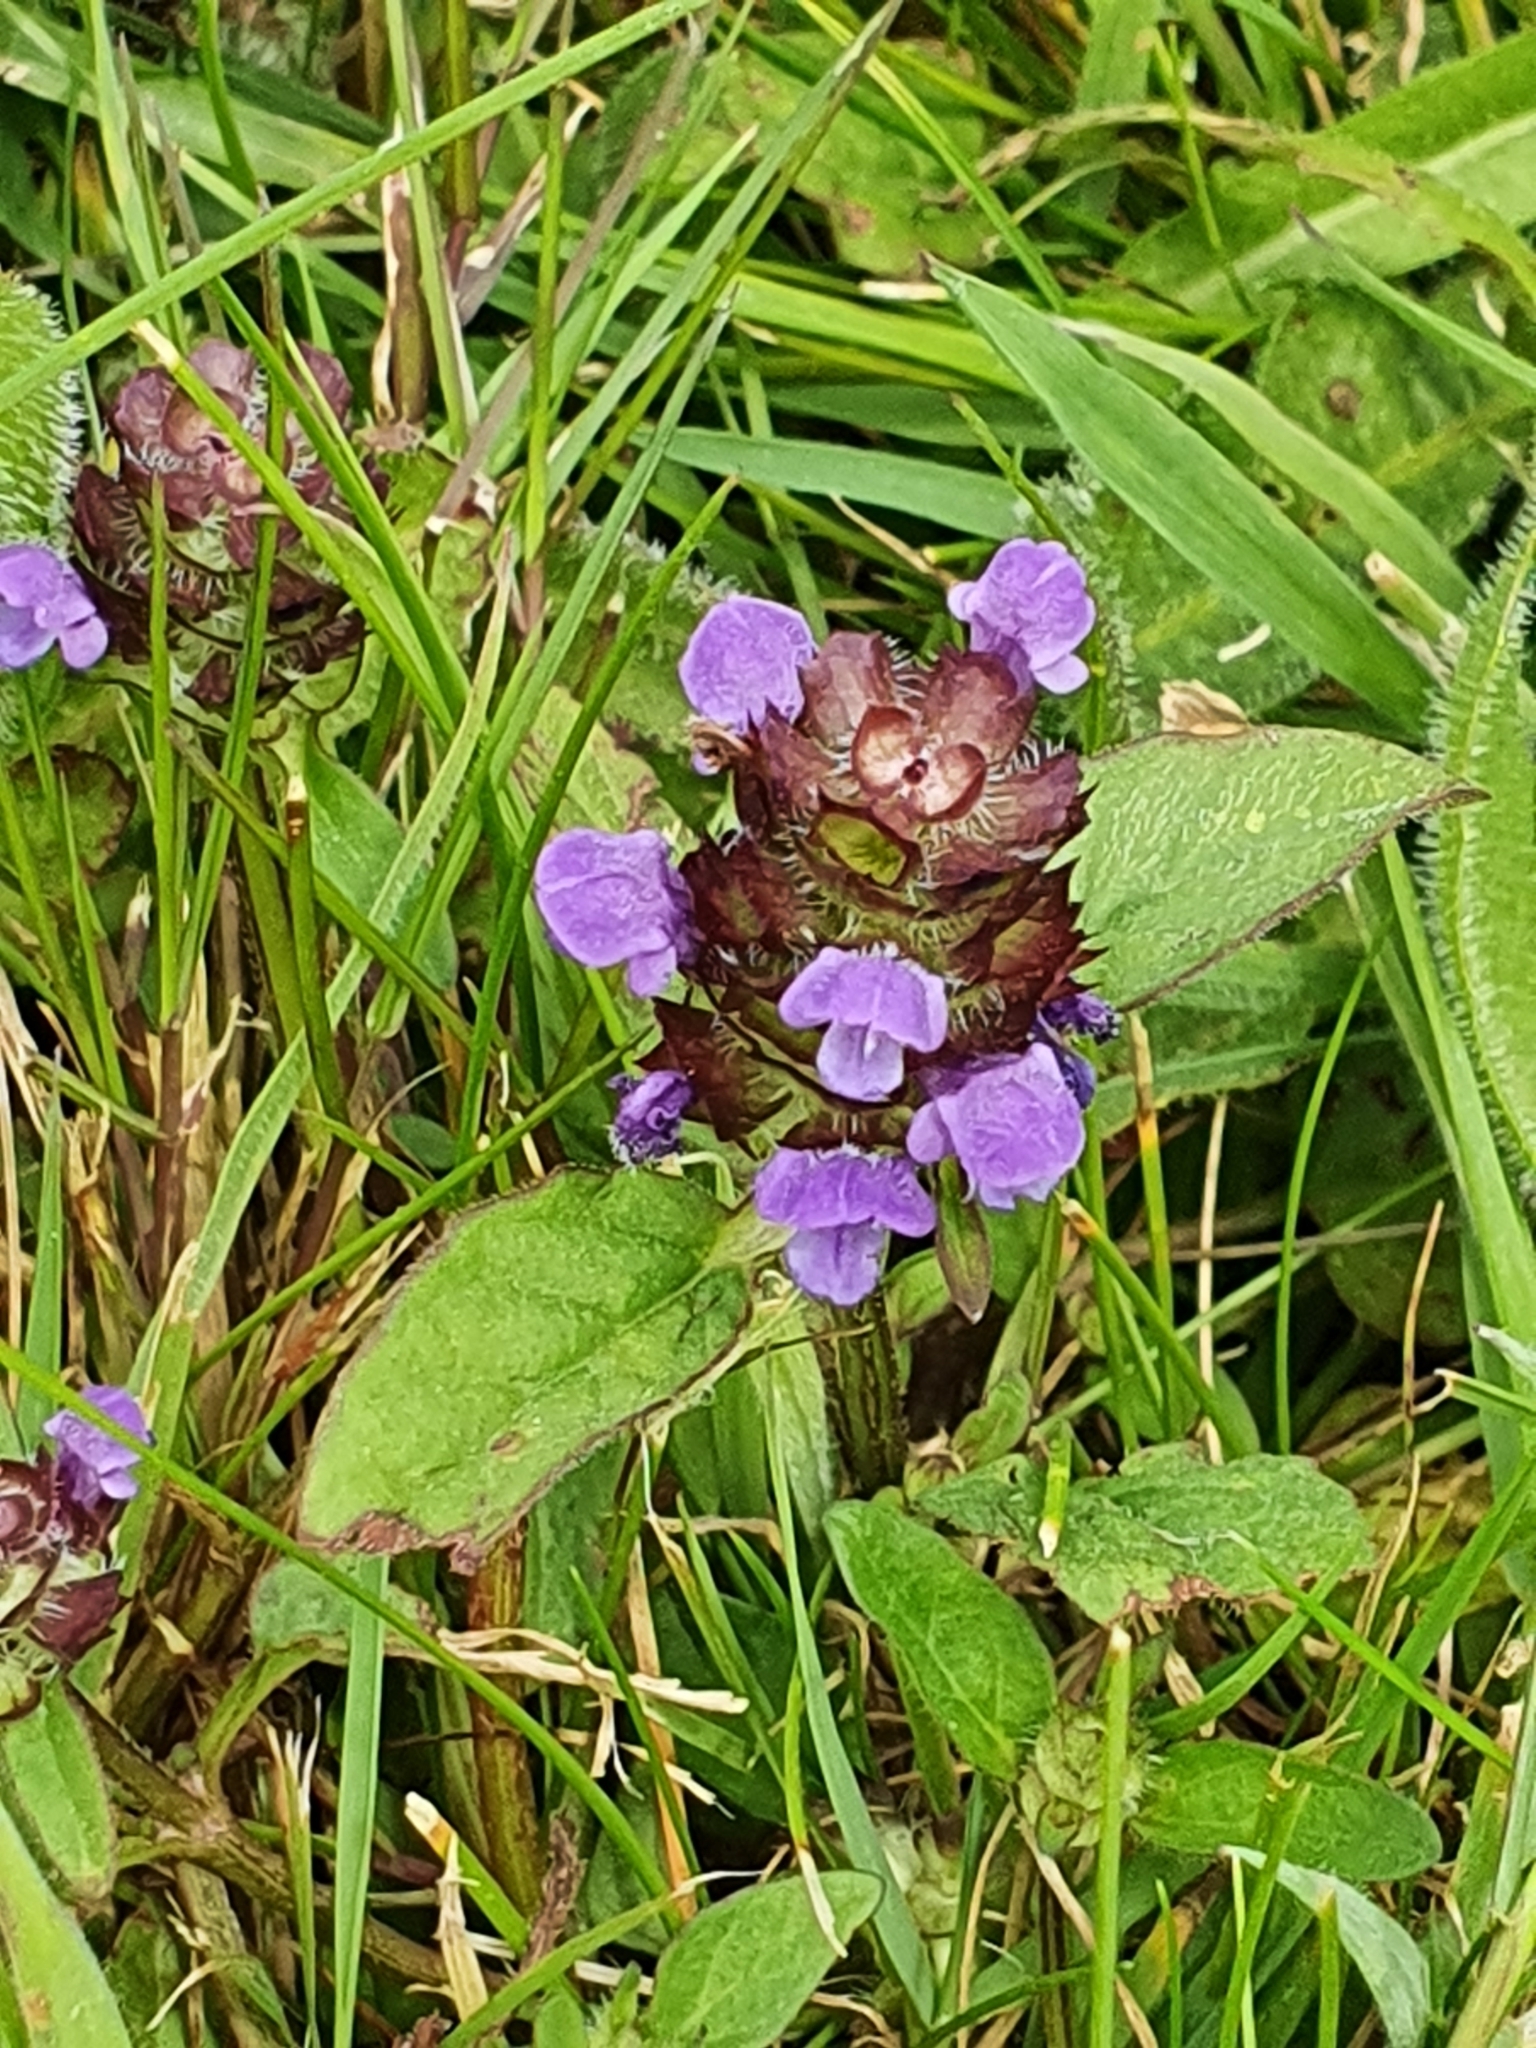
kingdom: Plantae
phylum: Tracheophyta
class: Magnoliopsida
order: Lamiales
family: Lamiaceae
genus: Prunella
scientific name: Prunella vulgaris
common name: Heal-all
